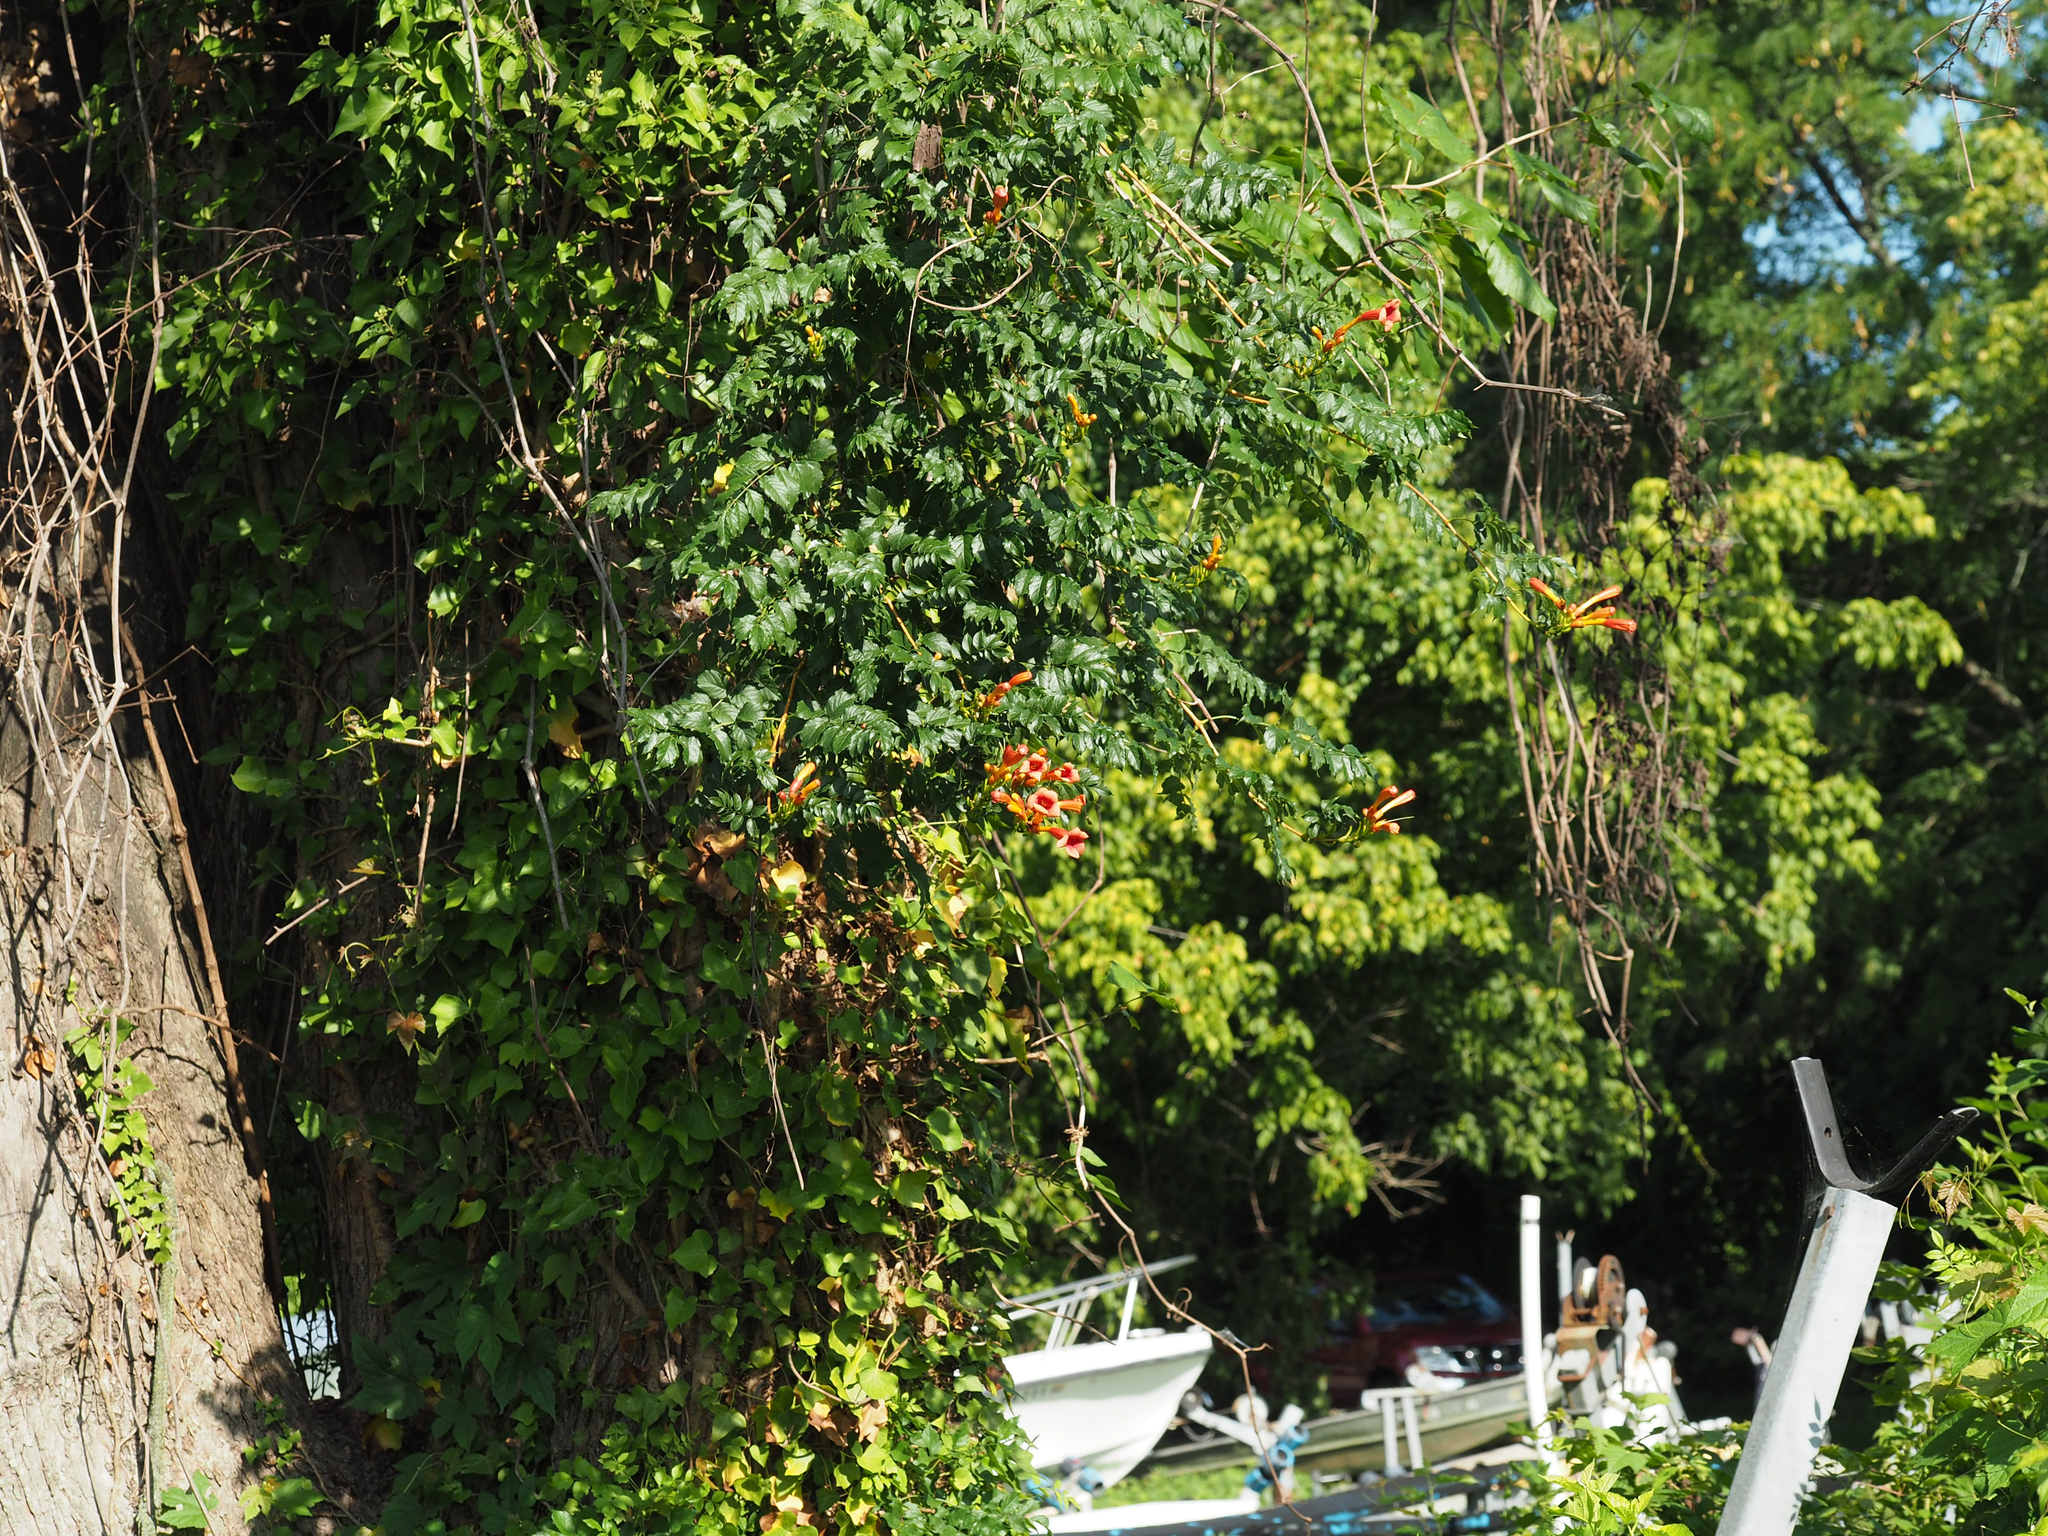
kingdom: Plantae
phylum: Tracheophyta
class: Magnoliopsida
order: Lamiales
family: Bignoniaceae
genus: Campsis
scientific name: Campsis radicans
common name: Trumpet-creeper
